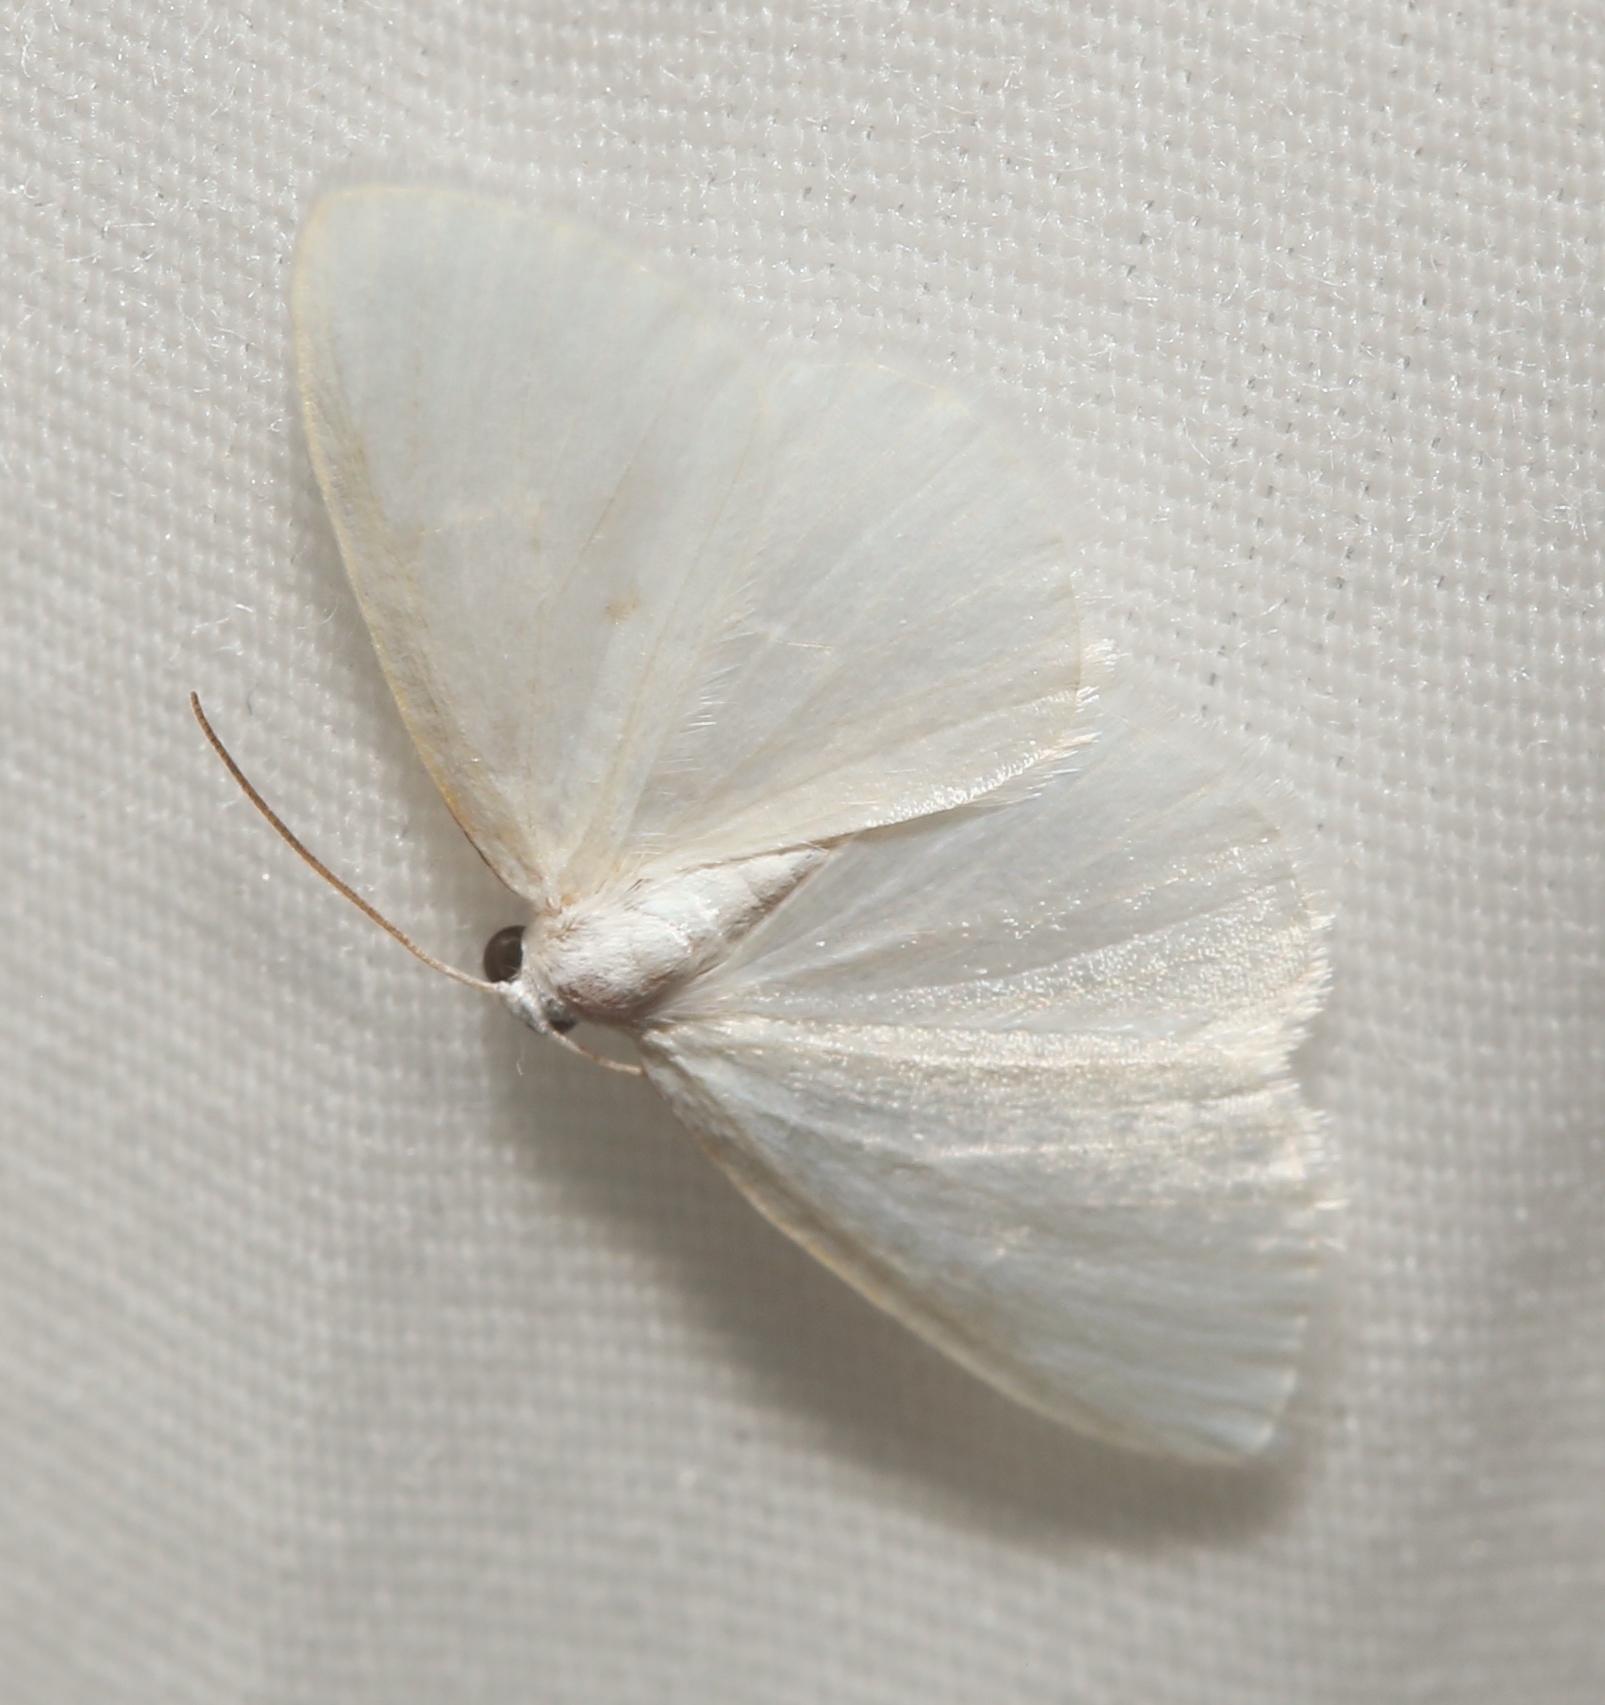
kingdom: Animalia
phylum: Arthropoda
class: Insecta
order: Lepidoptera
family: Geometridae
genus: Lomographa
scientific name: Lomographa vestaliata
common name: White spring moth
